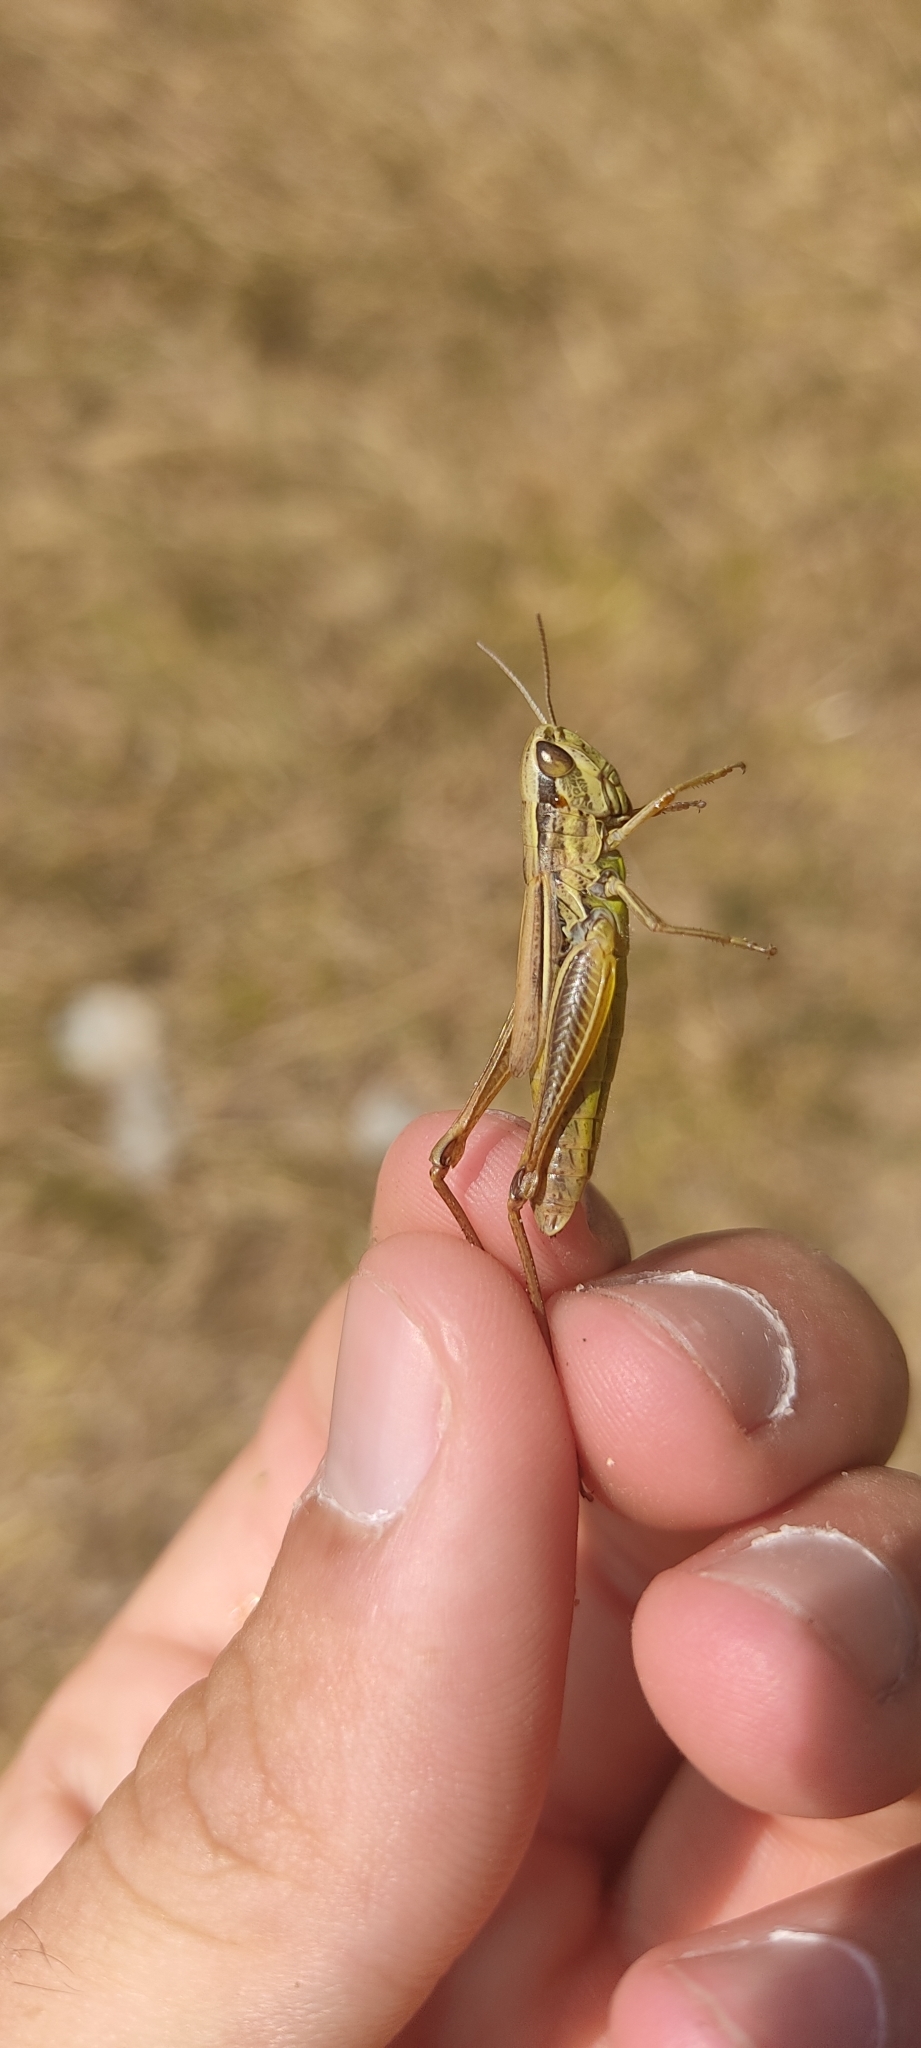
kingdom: Animalia
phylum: Arthropoda
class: Insecta
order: Orthoptera
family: Acrididae
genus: Euchorthippus
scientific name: Euchorthippus declivus
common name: Common straw grasshopper
